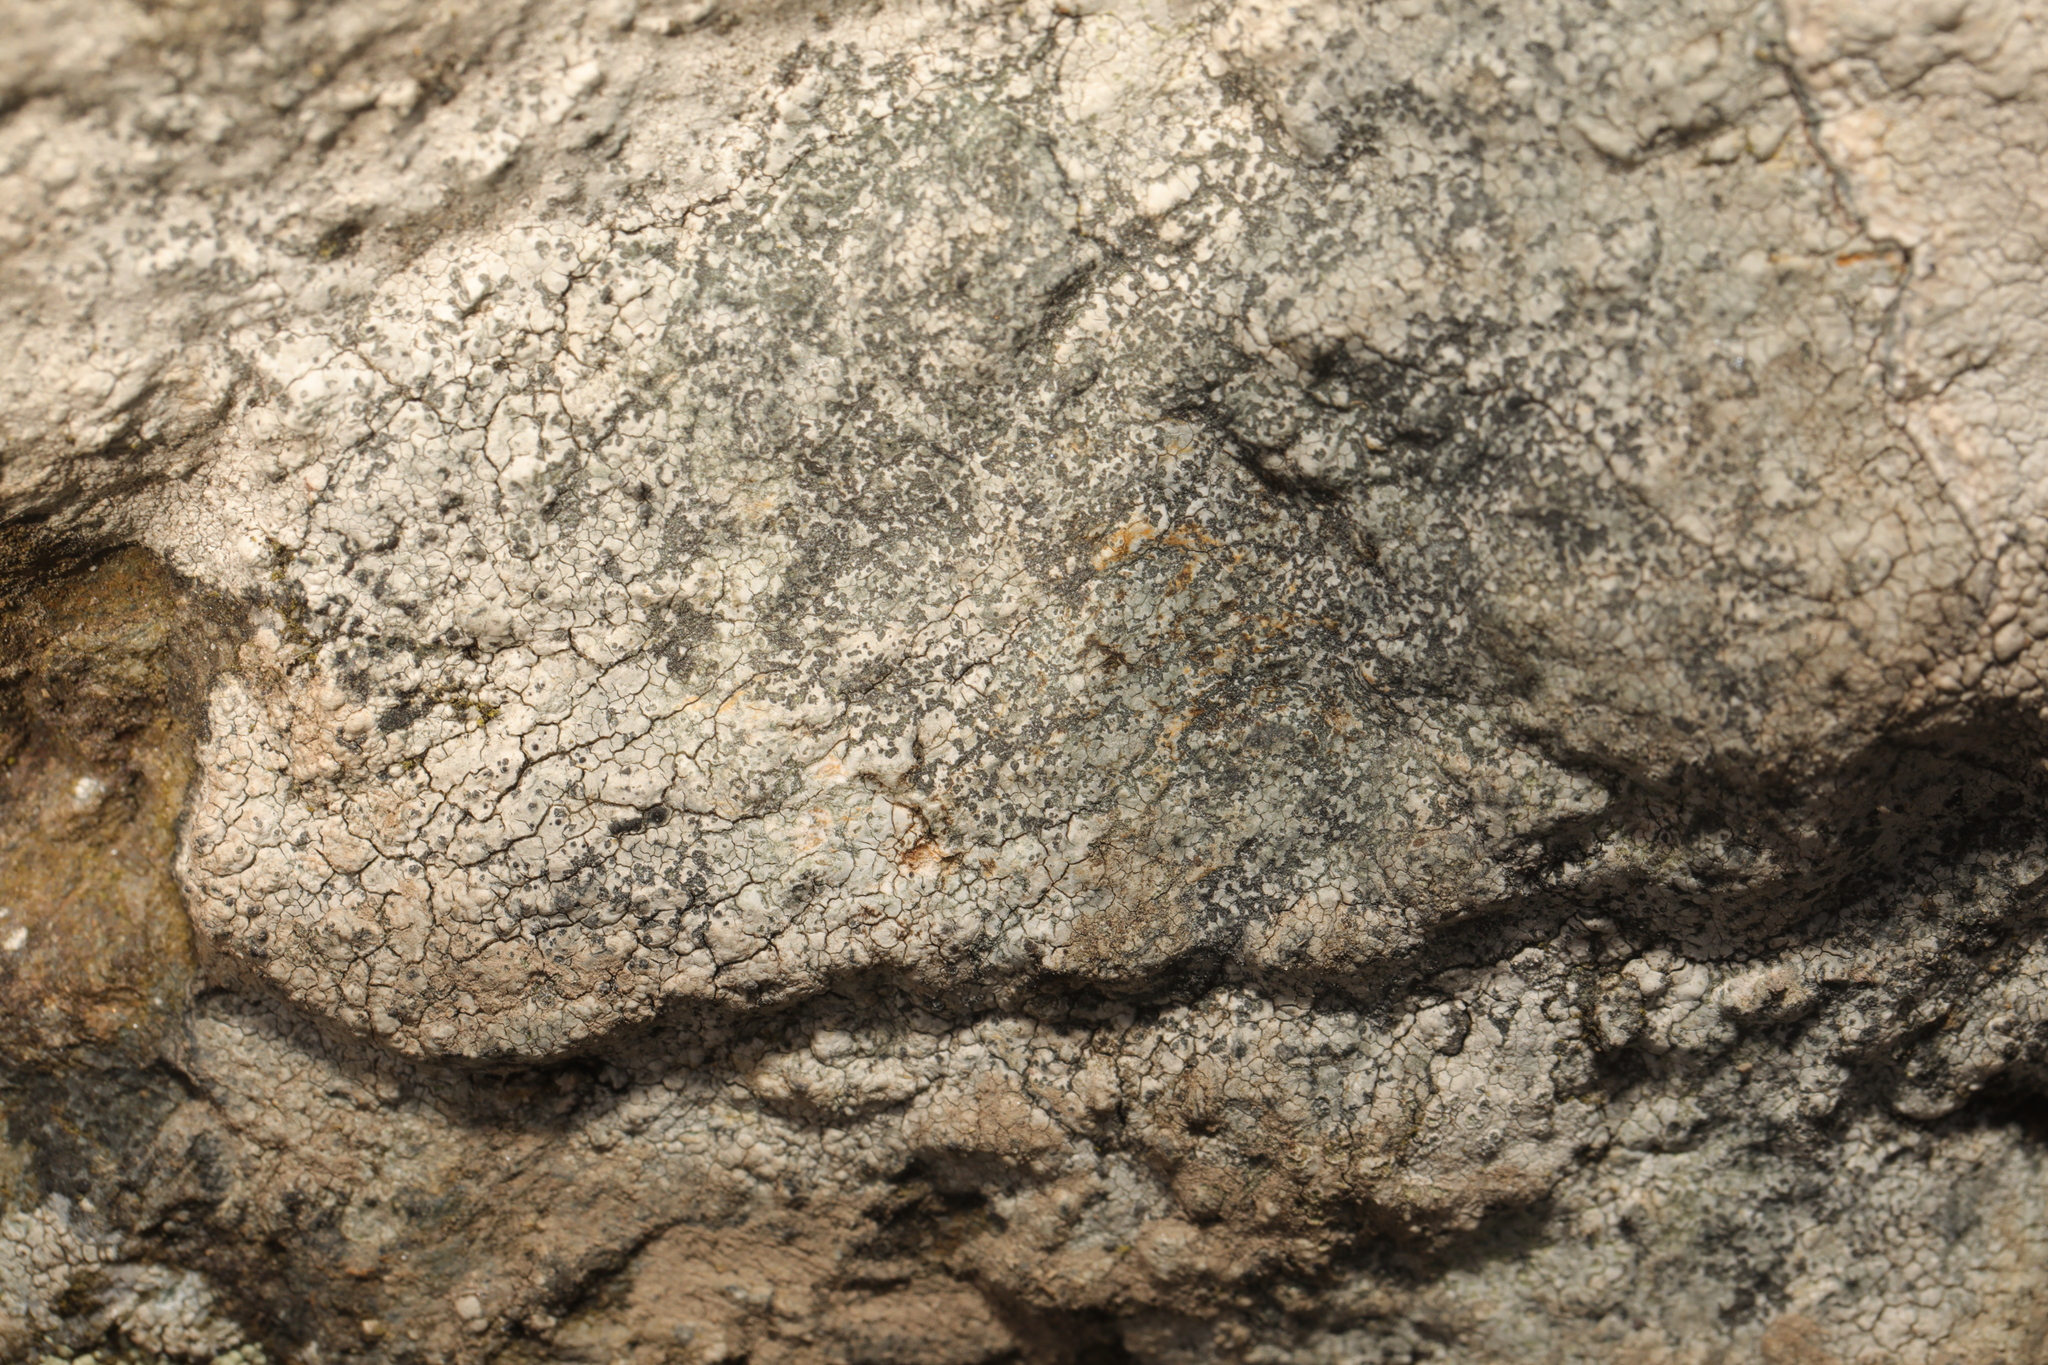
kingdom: Fungi
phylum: Ascomycota
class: Lecanoromycetes
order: Lecideales
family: Lecideaceae
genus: Porpidia
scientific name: Porpidia tuberculosa
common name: Boulder lichen
